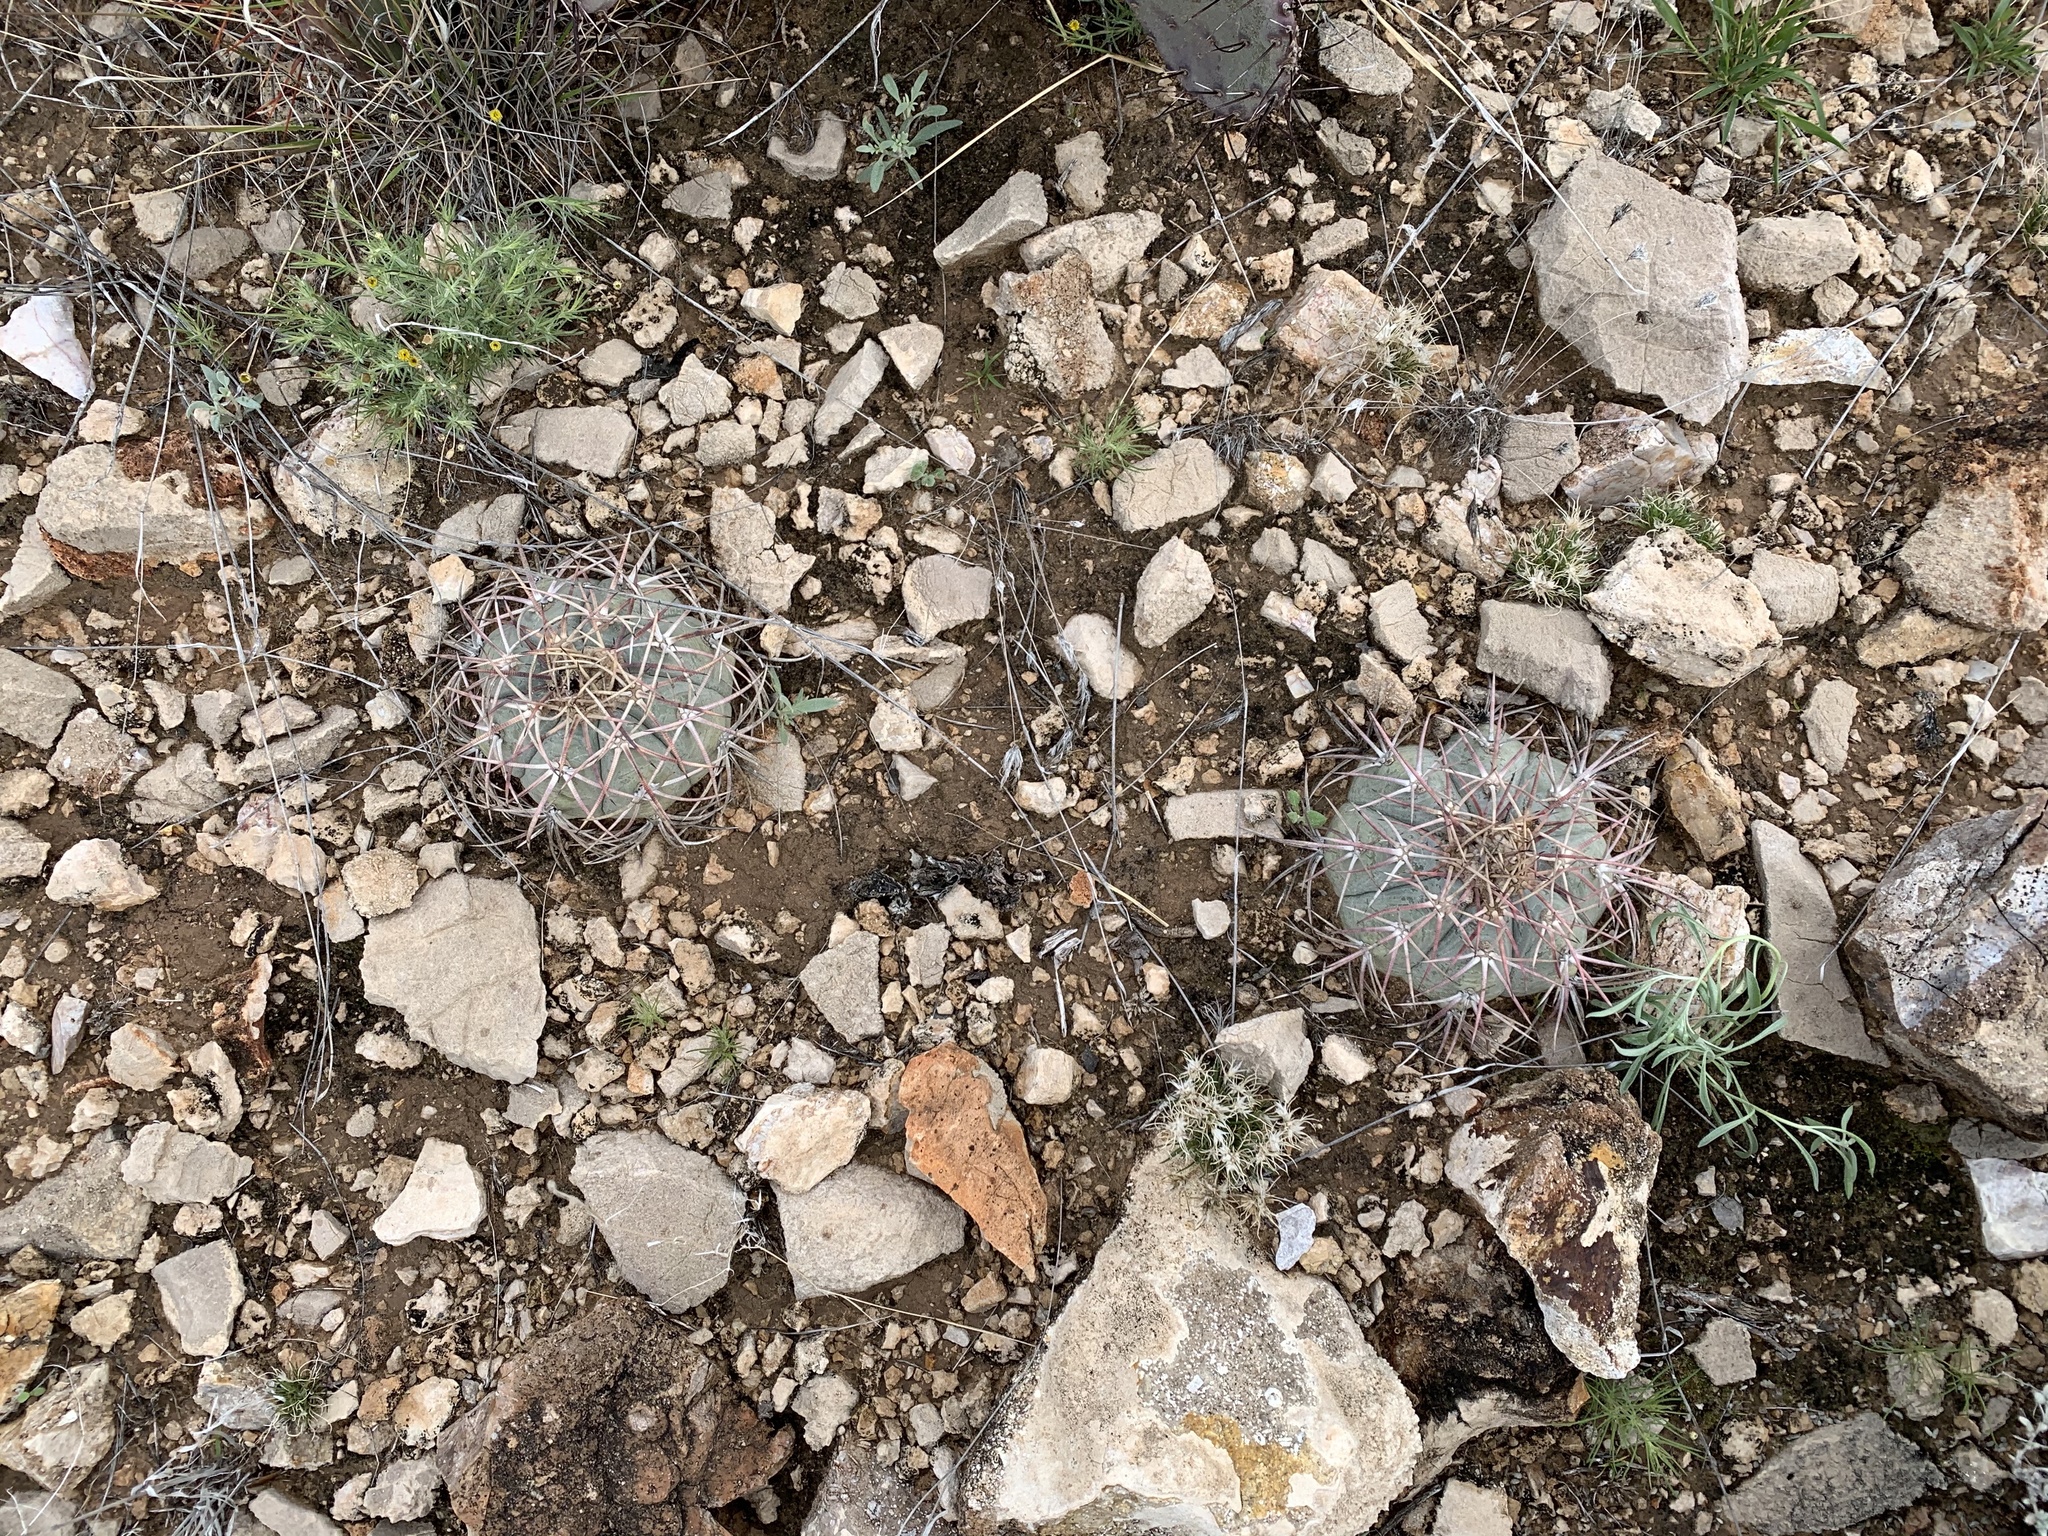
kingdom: Plantae
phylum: Tracheophyta
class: Magnoliopsida
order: Caryophyllales
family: Cactaceae
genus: Echinocactus
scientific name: Echinocactus horizonthalonius
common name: Devilshead
